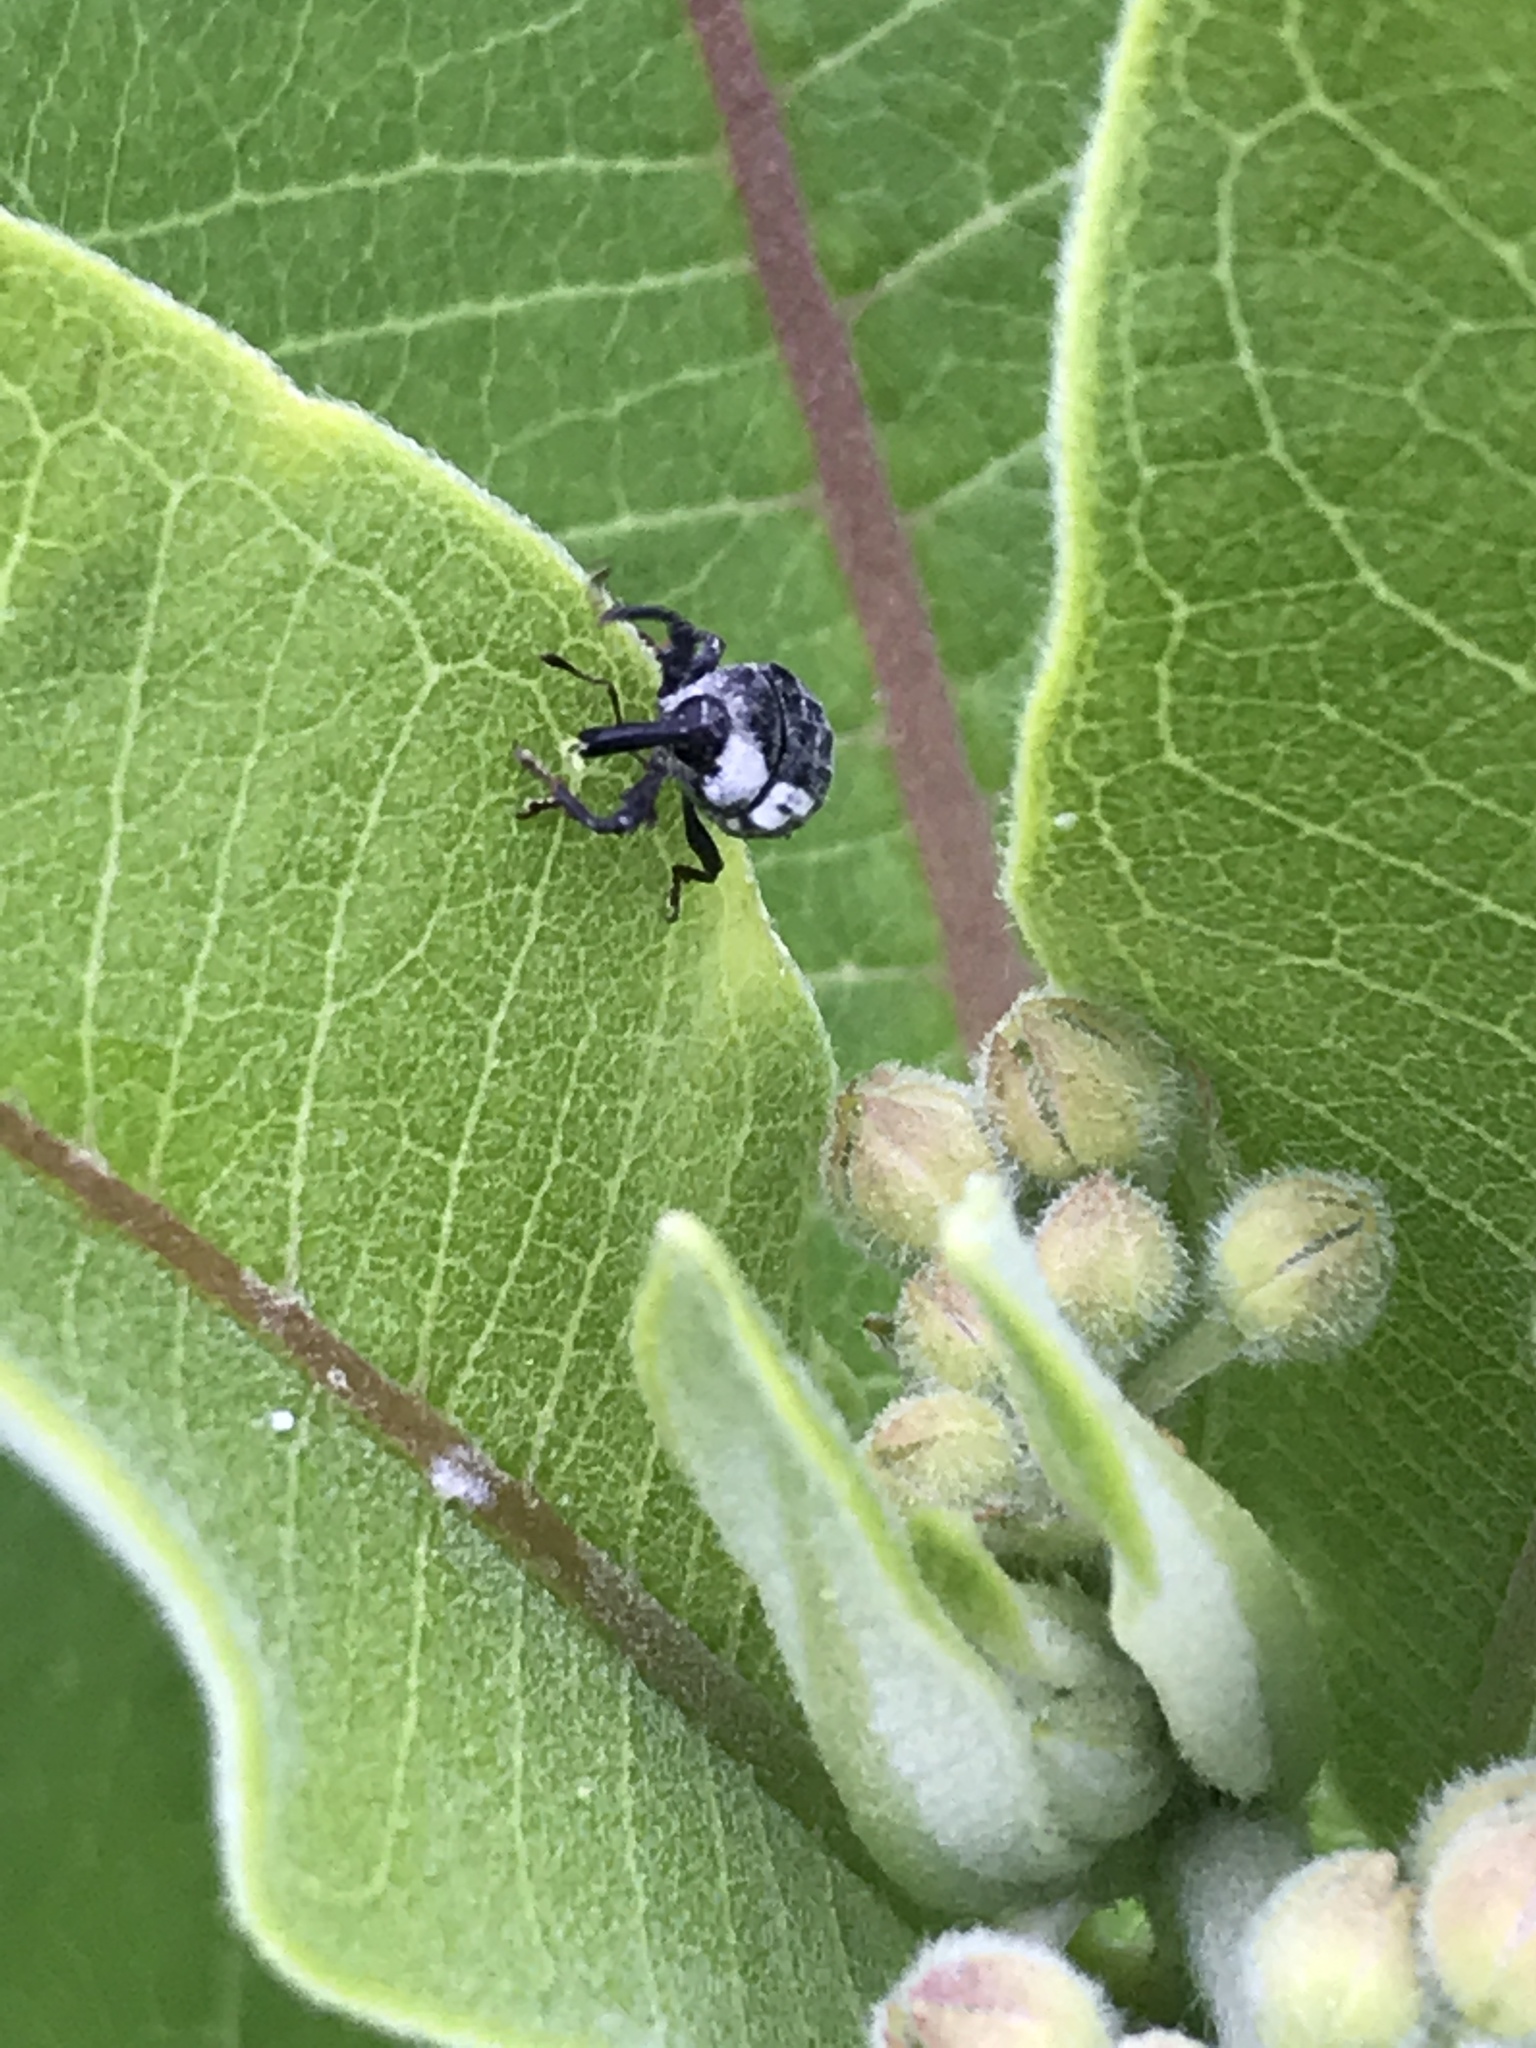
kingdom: Animalia
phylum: Arthropoda
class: Insecta
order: Coleoptera
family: Curculionidae
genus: Rhyssomatus
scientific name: Rhyssomatus lineaticollis
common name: Milkweed stem weevil
